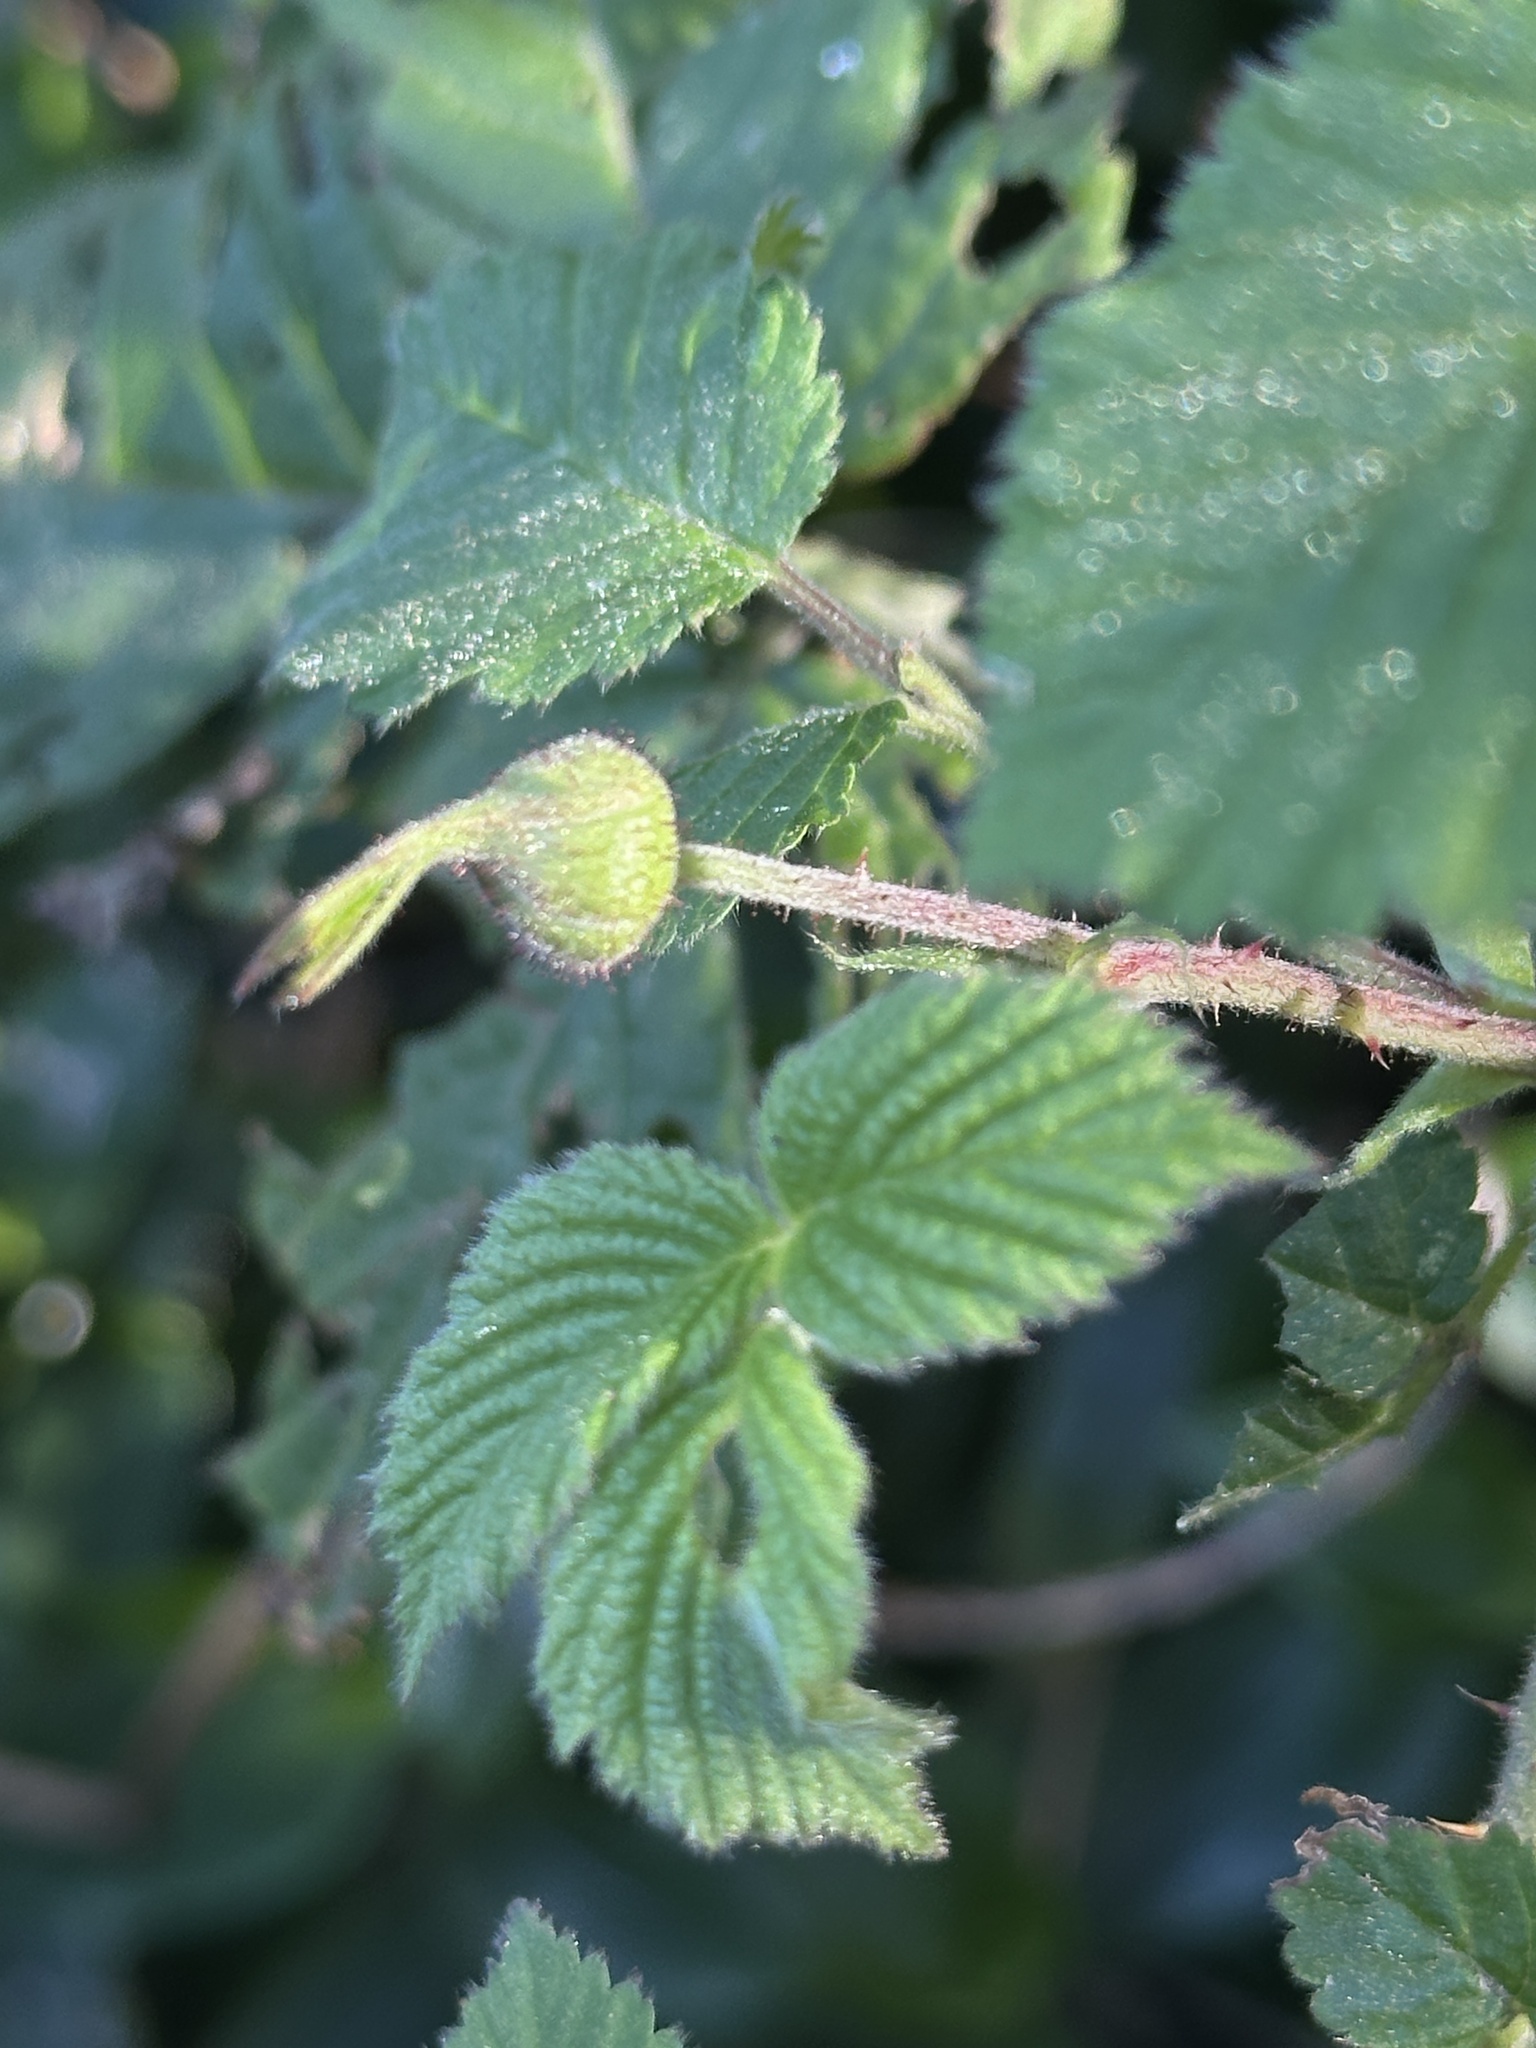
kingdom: Plantae
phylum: Tracheophyta
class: Magnoliopsida
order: Rosales
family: Rosaceae
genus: Rubus
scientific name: Rubus hirsutus
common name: Hirsute raspberry
